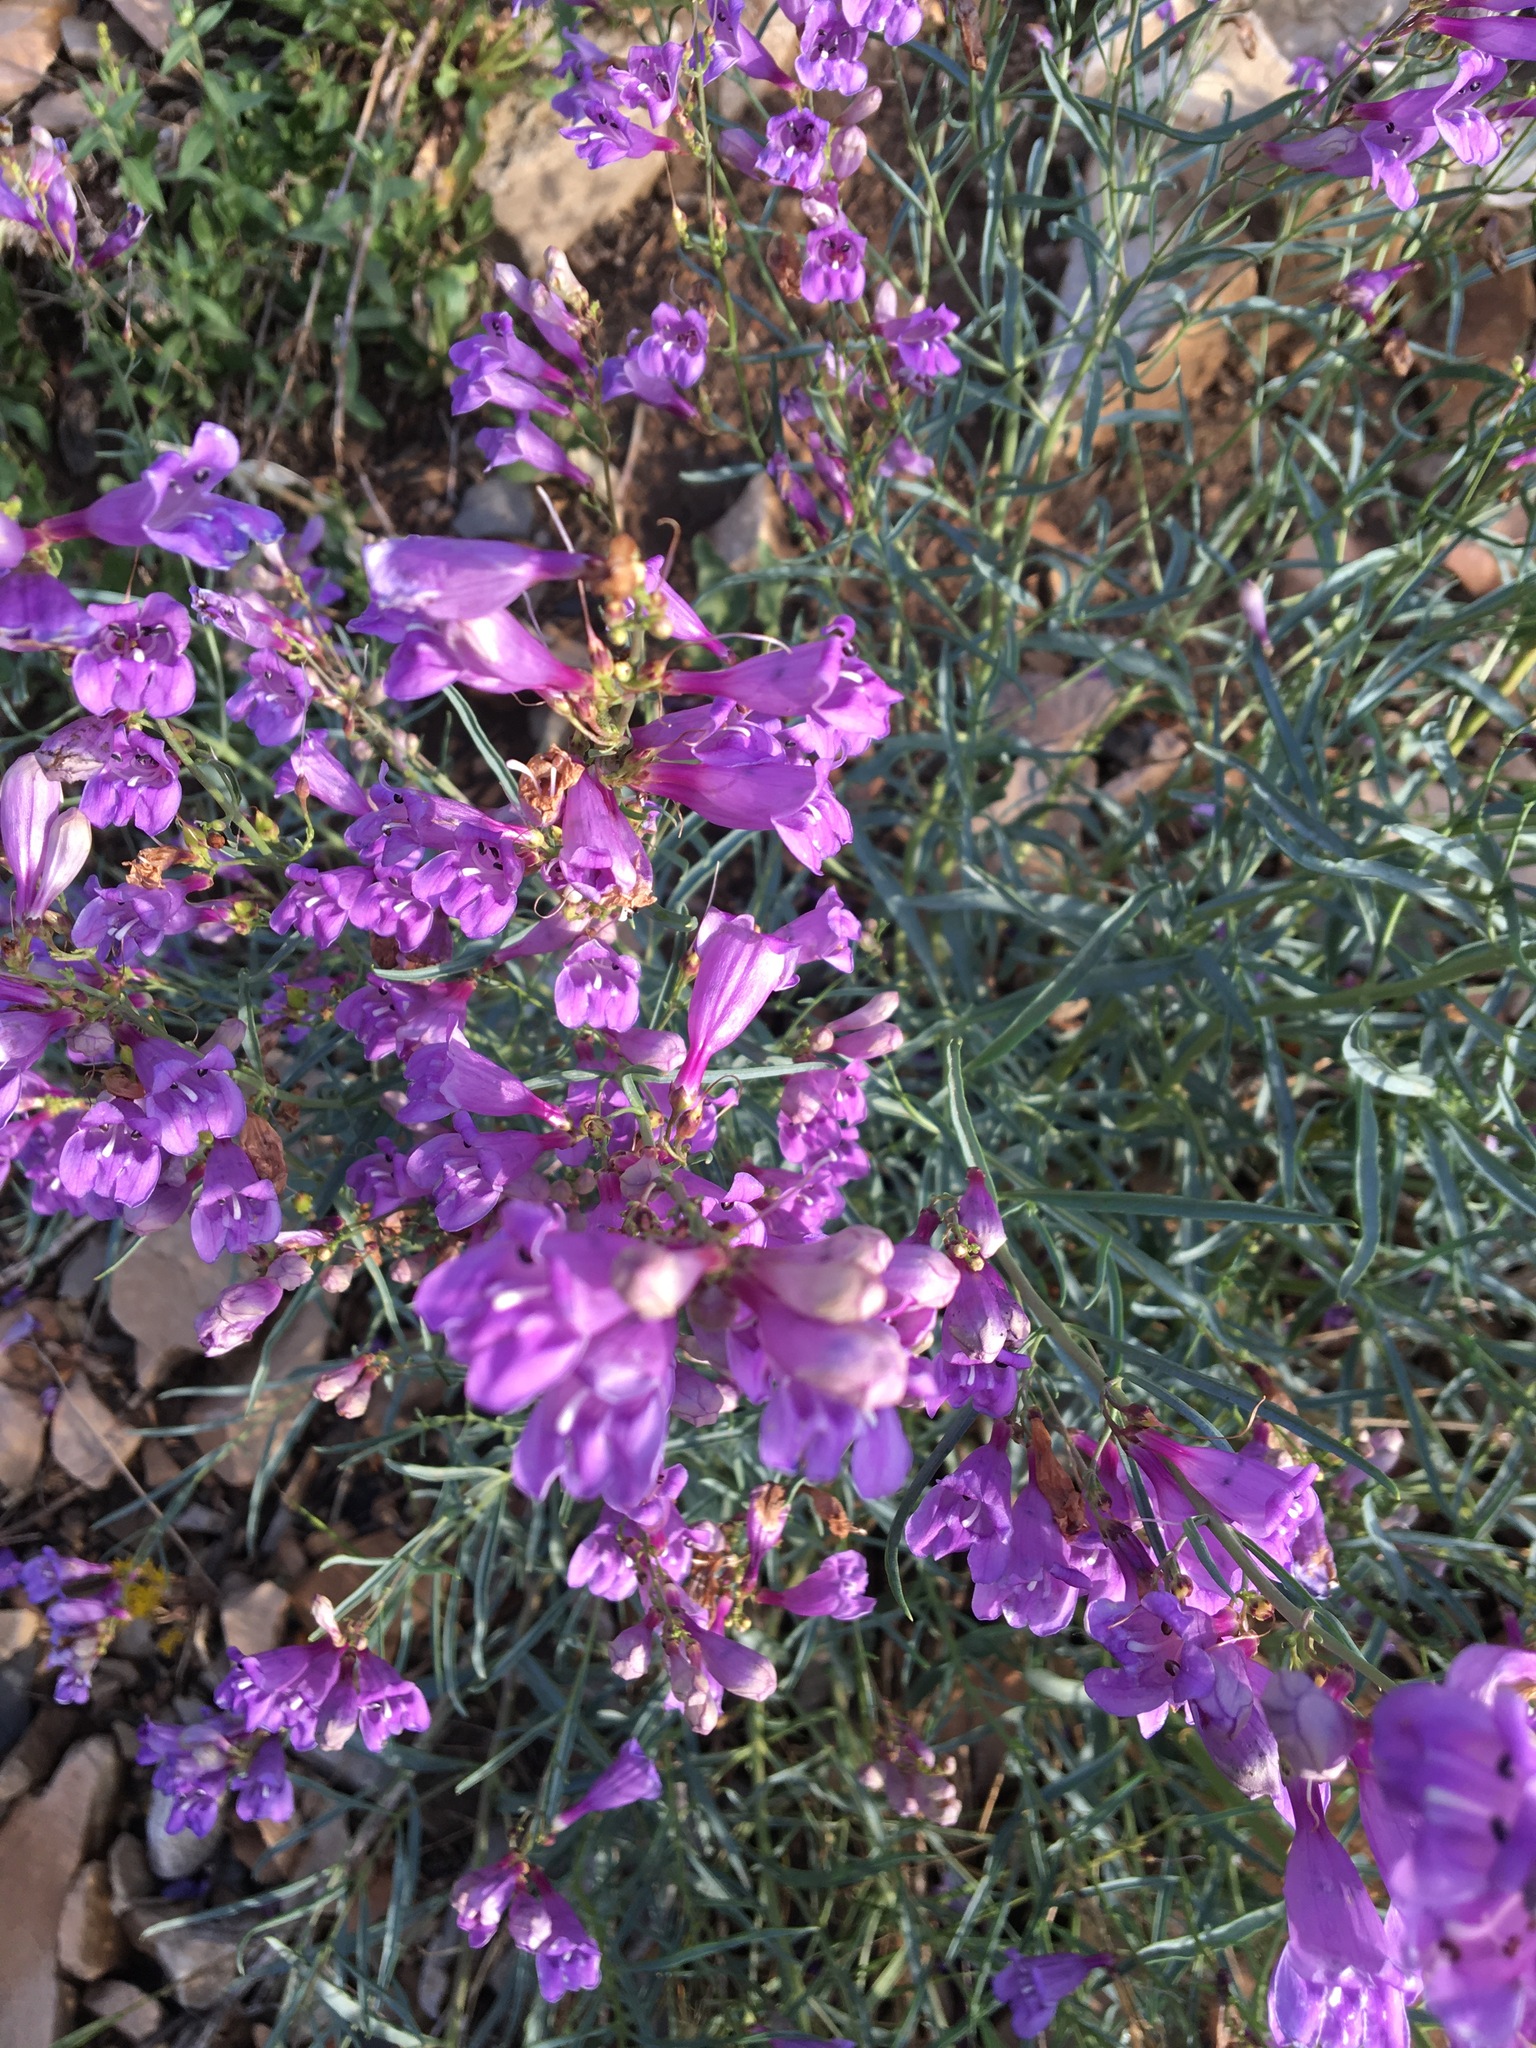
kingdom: Plantae
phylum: Tracheophyta
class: Magnoliopsida
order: Lamiales
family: Plantaginaceae
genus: Penstemon
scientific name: Penstemon sepalulus
